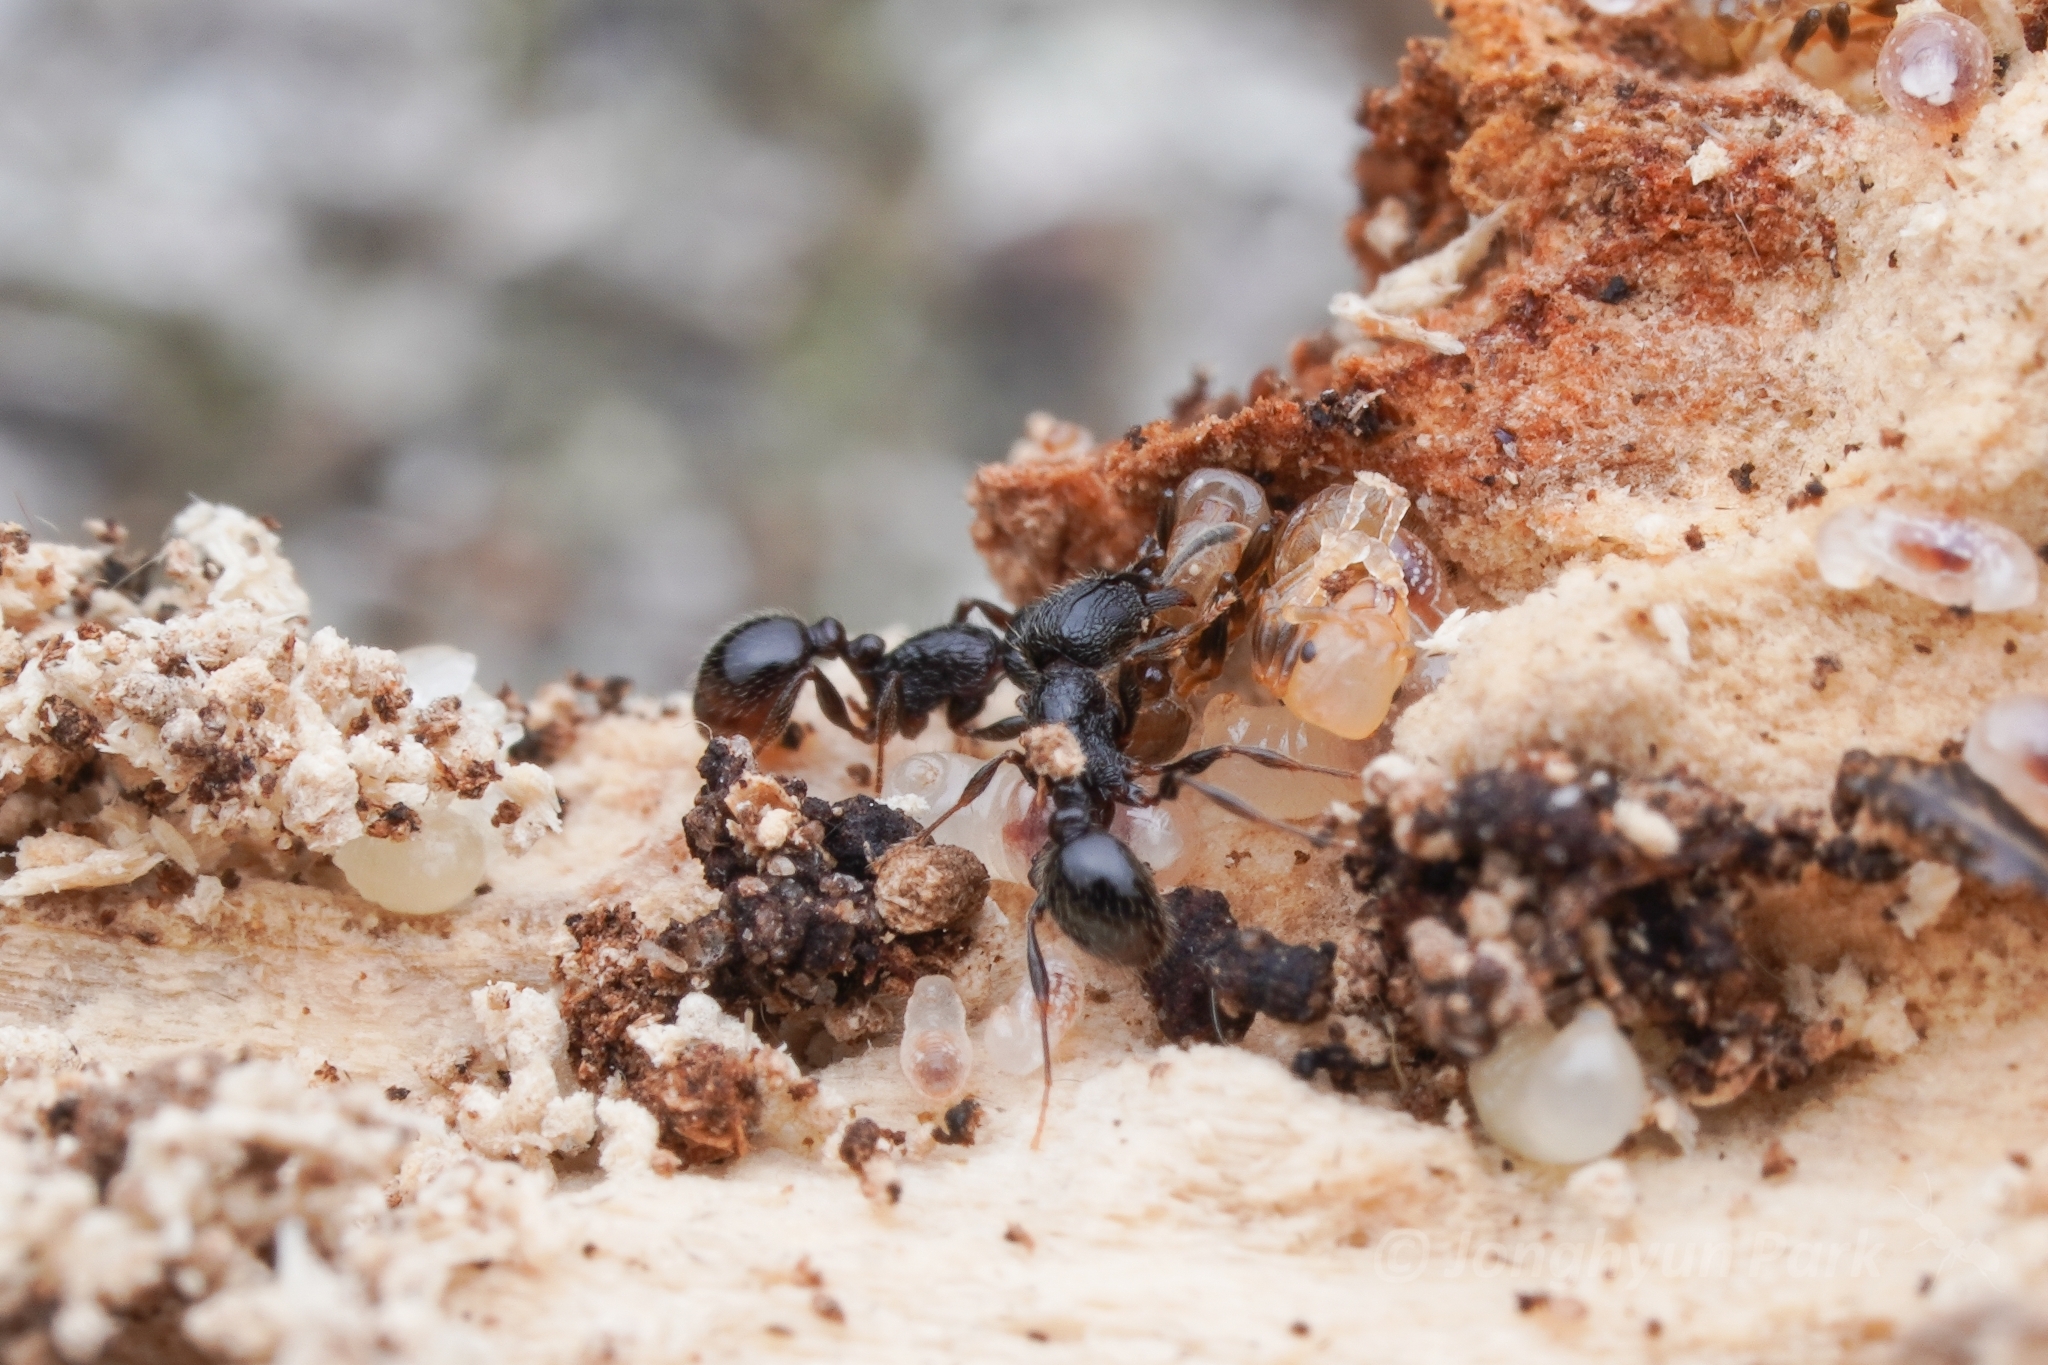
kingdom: Animalia
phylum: Arthropoda
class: Insecta
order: Hymenoptera
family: Formicidae
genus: Tetramorium
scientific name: Tetramorium grassii
